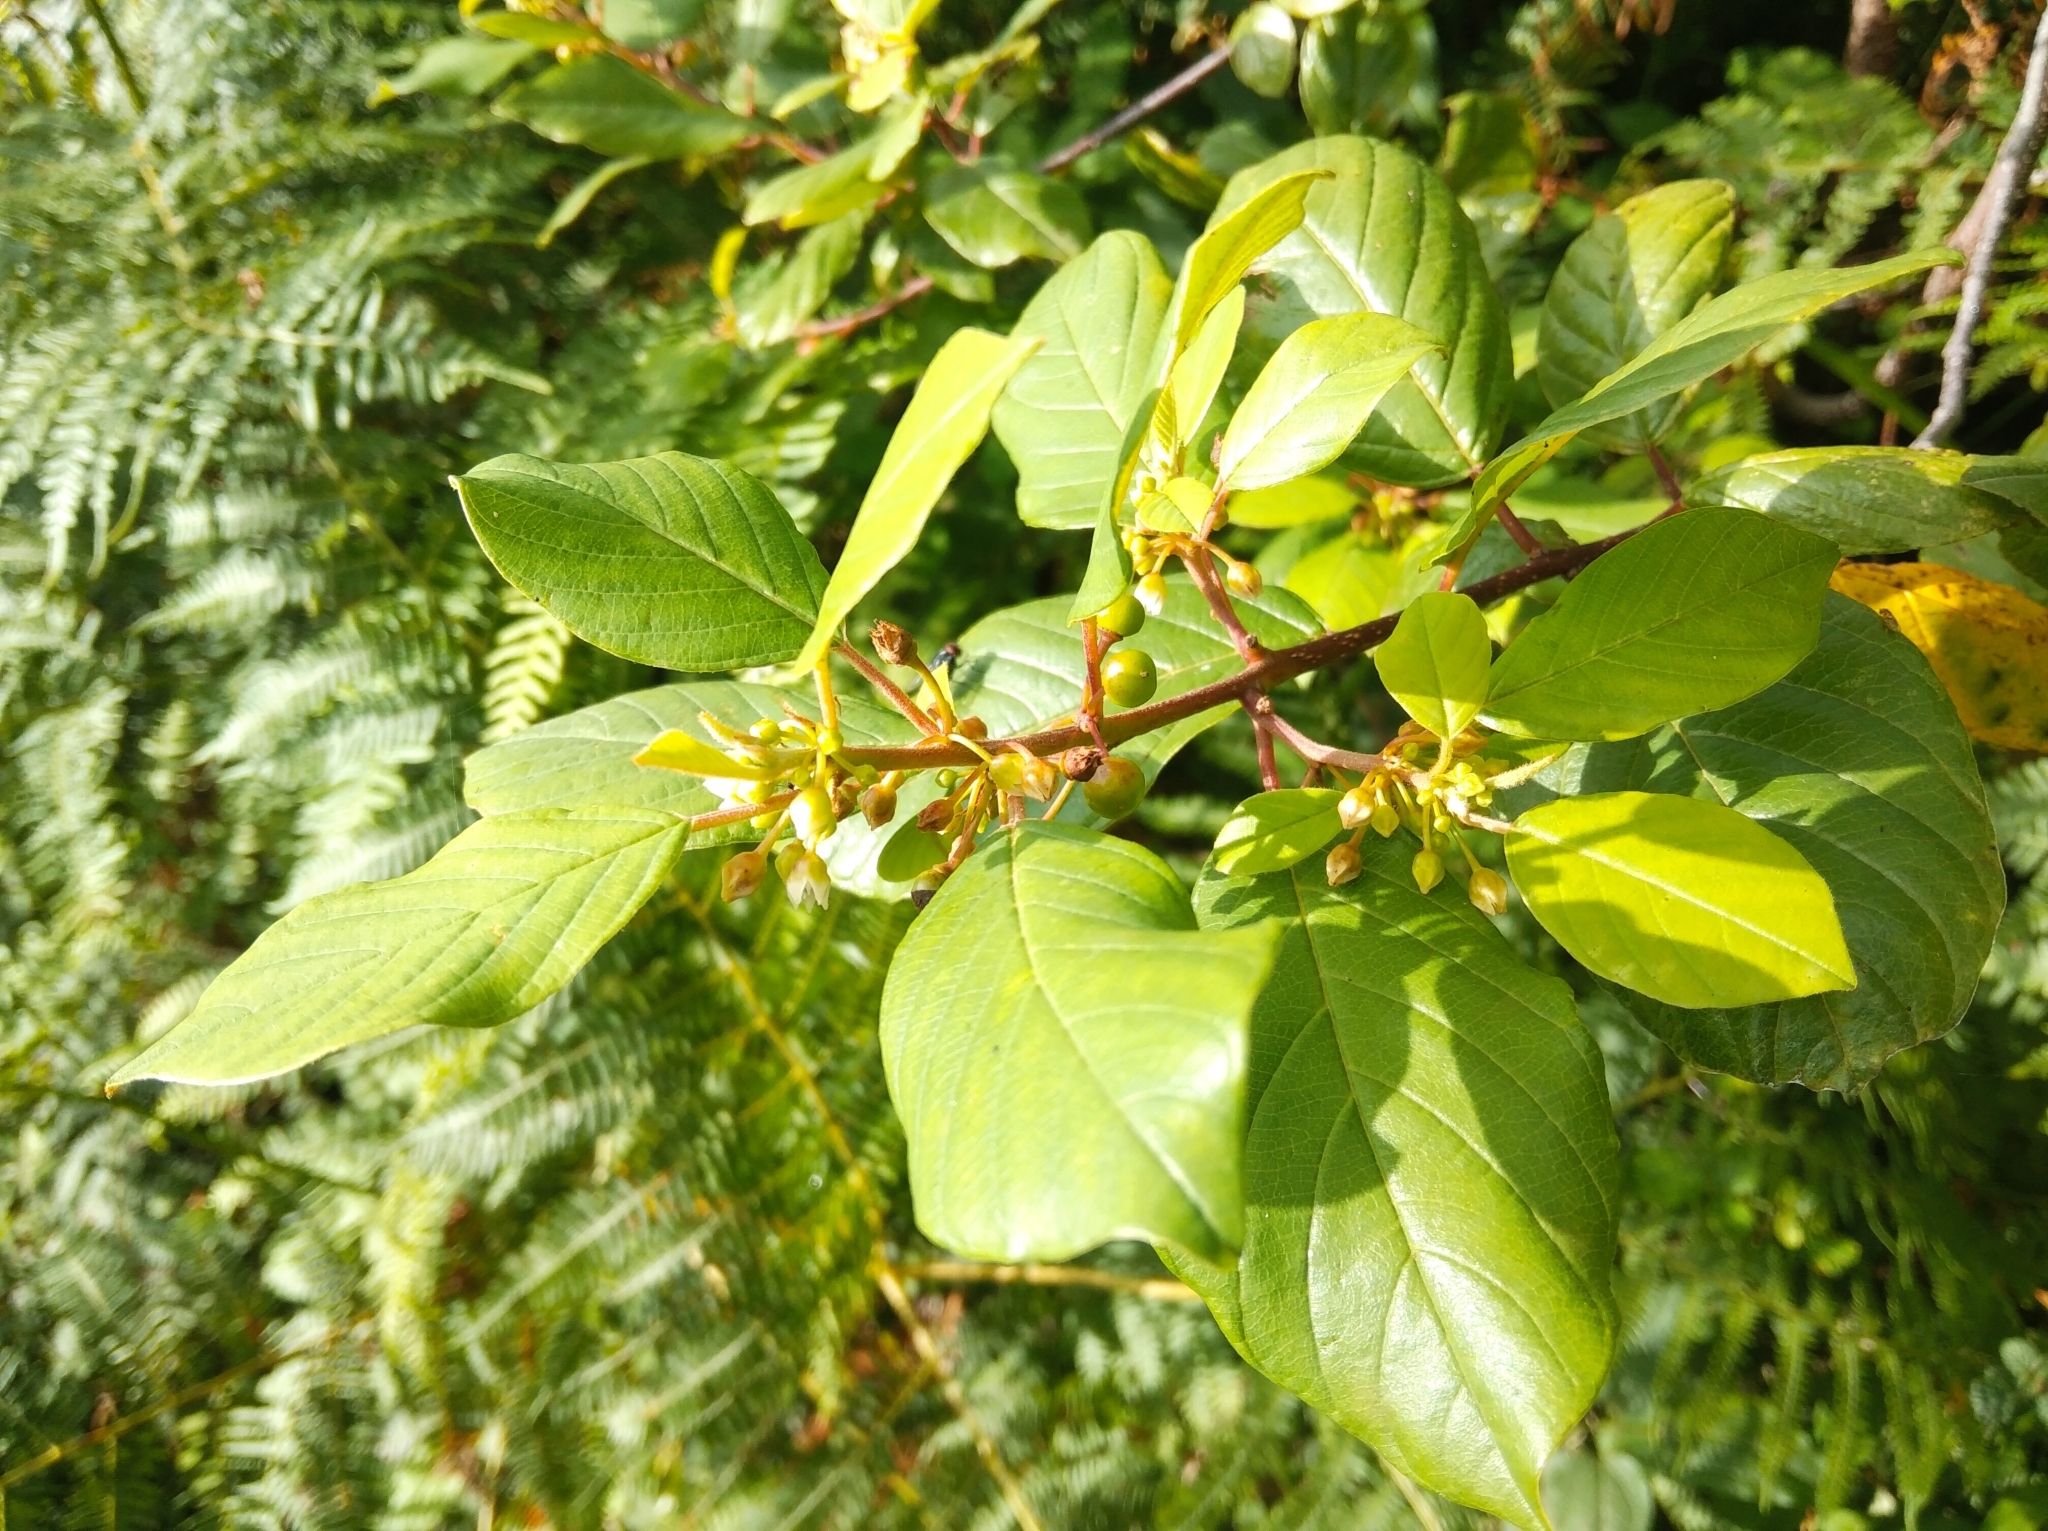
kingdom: Plantae
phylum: Tracheophyta
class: Magnoliopsida
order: Rosales
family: Rhamnaceae
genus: Frangula
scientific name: Frangula alnus
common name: Alder buckthorn
